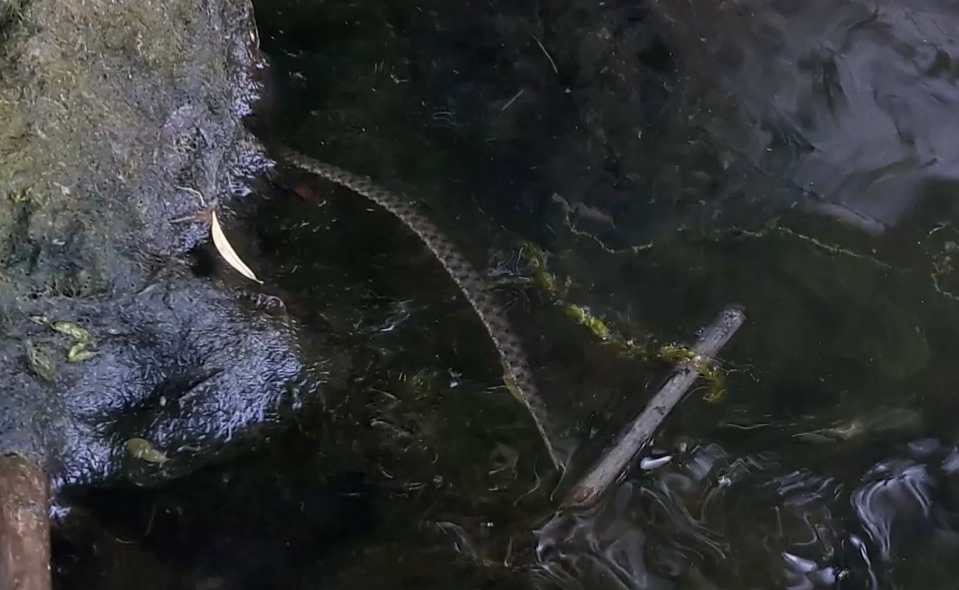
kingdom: Animalia
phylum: Chordata
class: Squamata
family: Colubridae
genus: Natrix
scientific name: Natrix tessellata
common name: Dice snake
